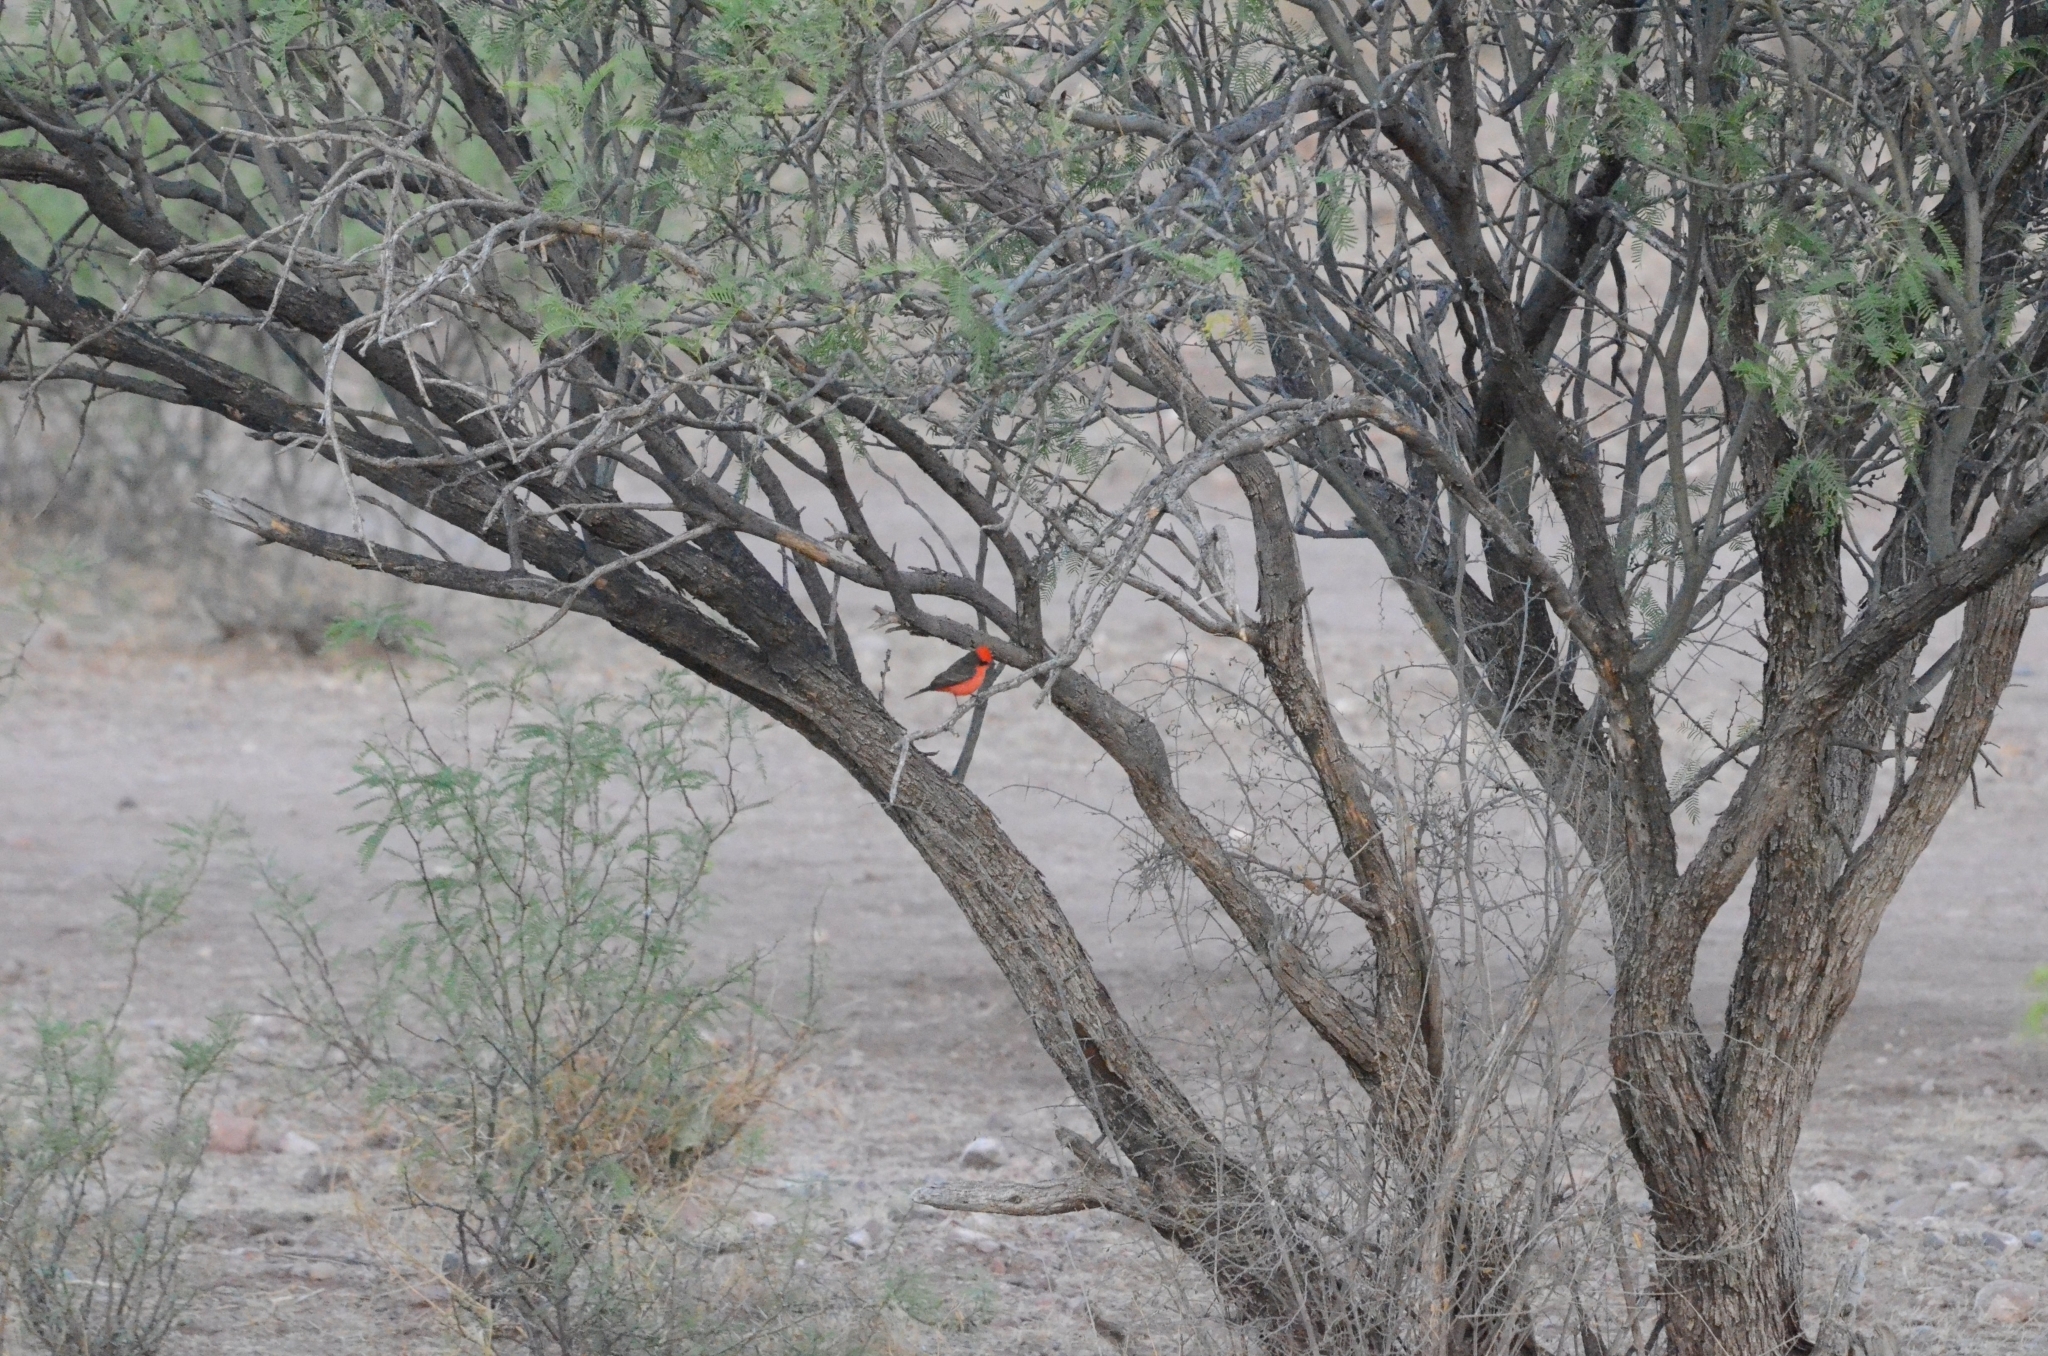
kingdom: Animalia
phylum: Chordata
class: Aves
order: Passeriformes
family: Tyrannidae
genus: Pyrocephalus
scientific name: Pyrocephalus rubinus
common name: Vermilion flycatcher
